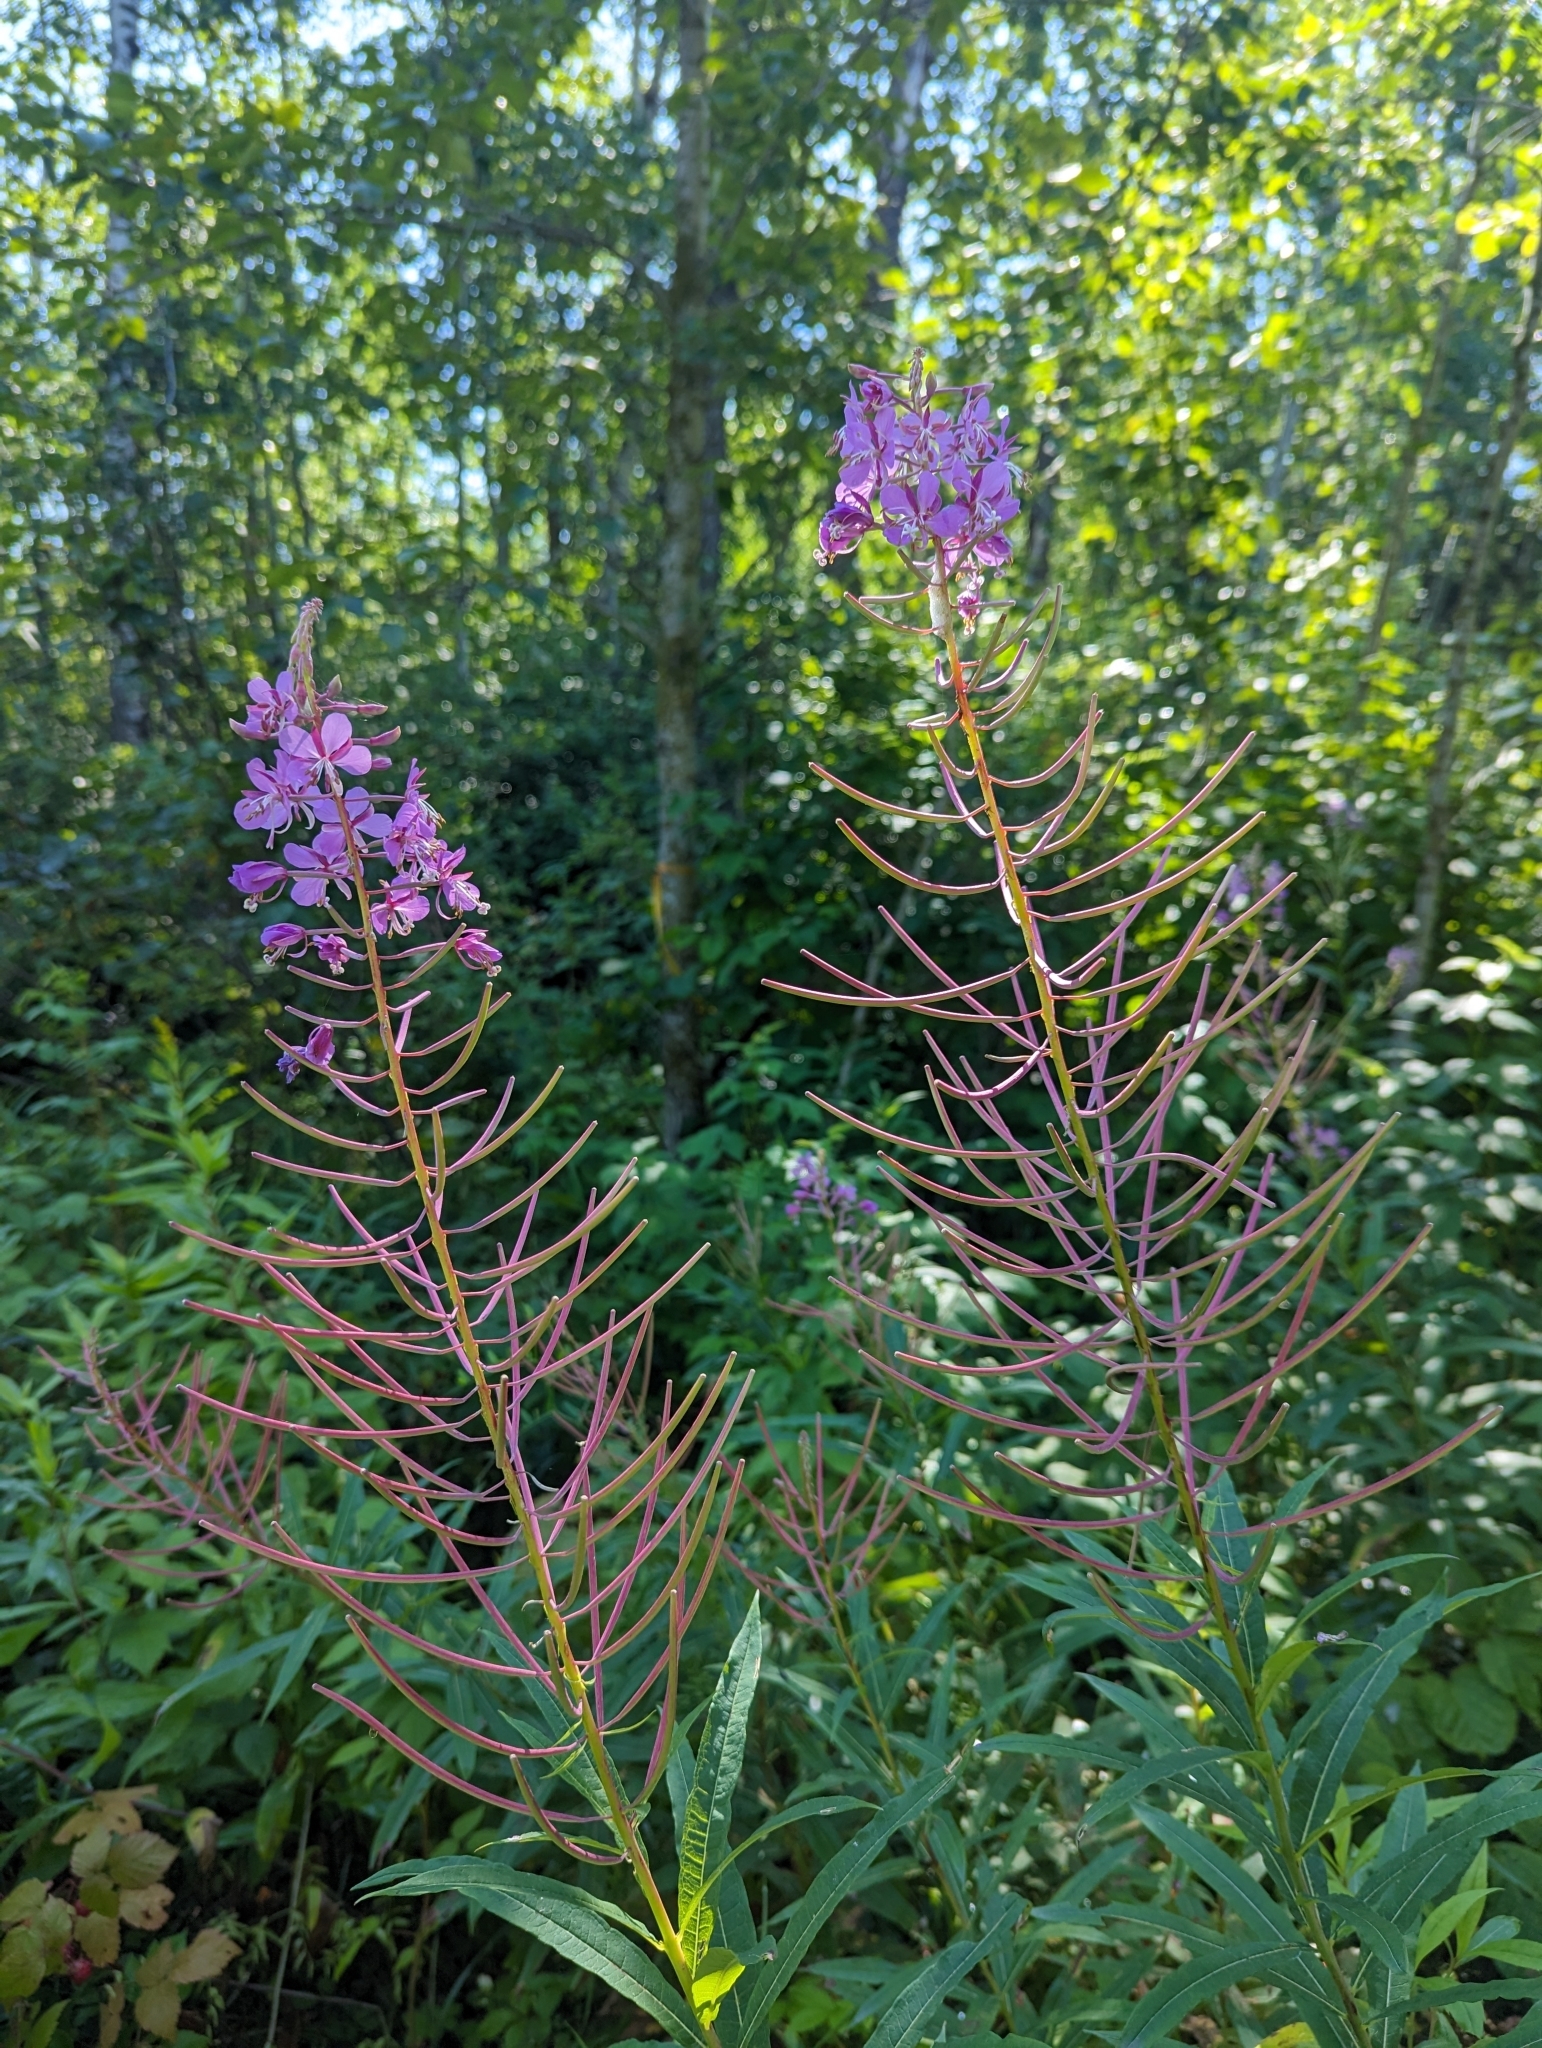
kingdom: Plantae
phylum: Tracheophyta
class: Magnoliopsida
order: Myrtales
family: Onagraceae
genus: Chamaenerion
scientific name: Chamaenerion angustifolium
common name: Fireweed
